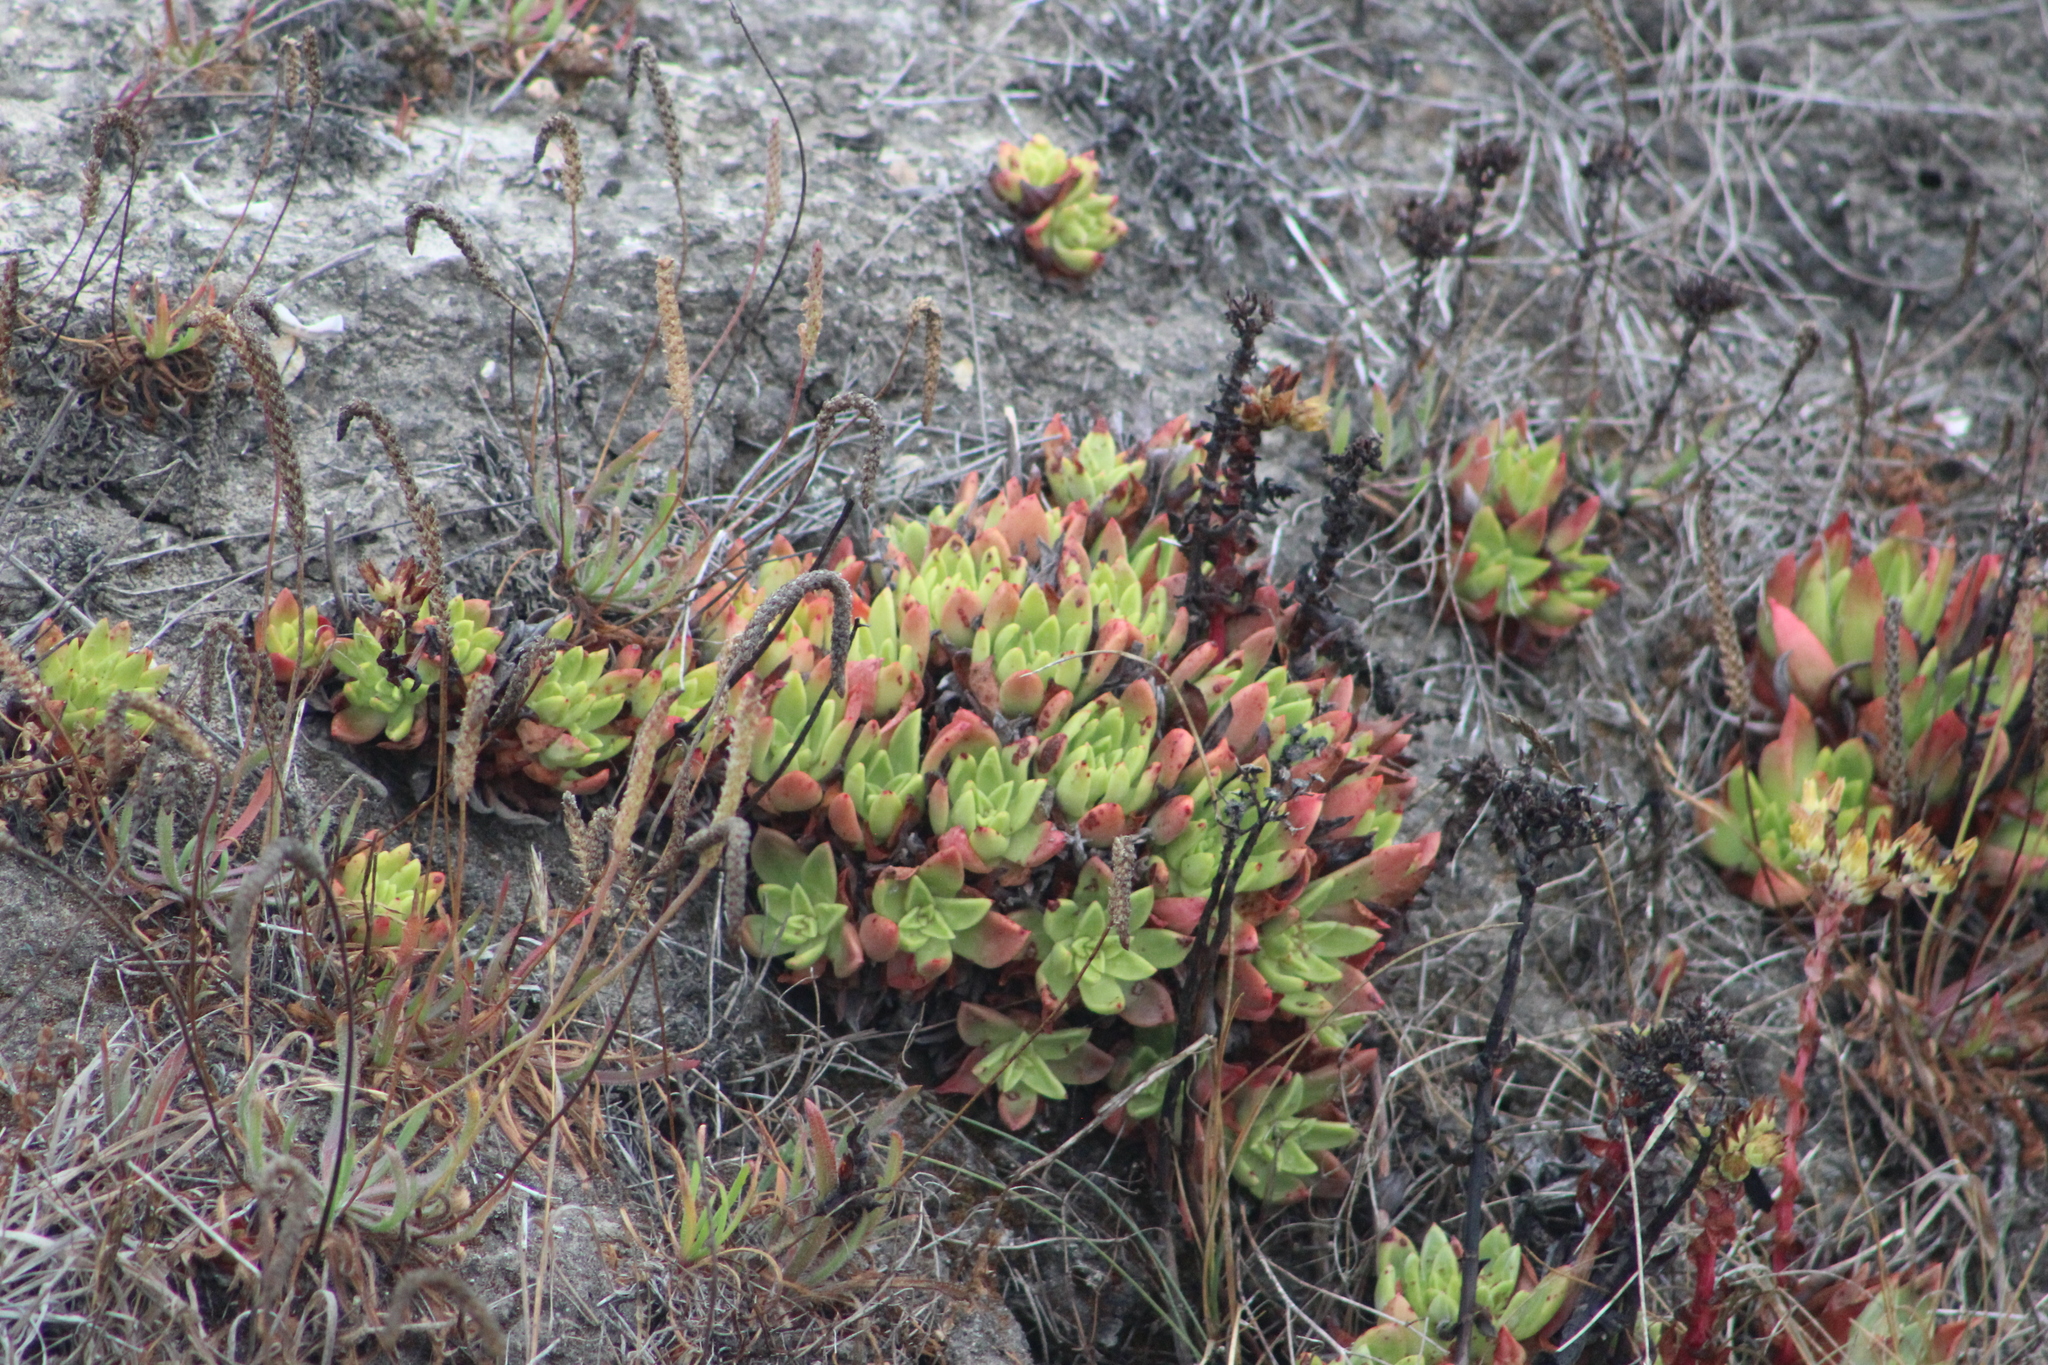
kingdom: Plantae
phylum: Tracheophyta
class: Magnoliopsida
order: Saxifragales
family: Crassulaceae
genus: Dudleya
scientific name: Dudleya farinosa
